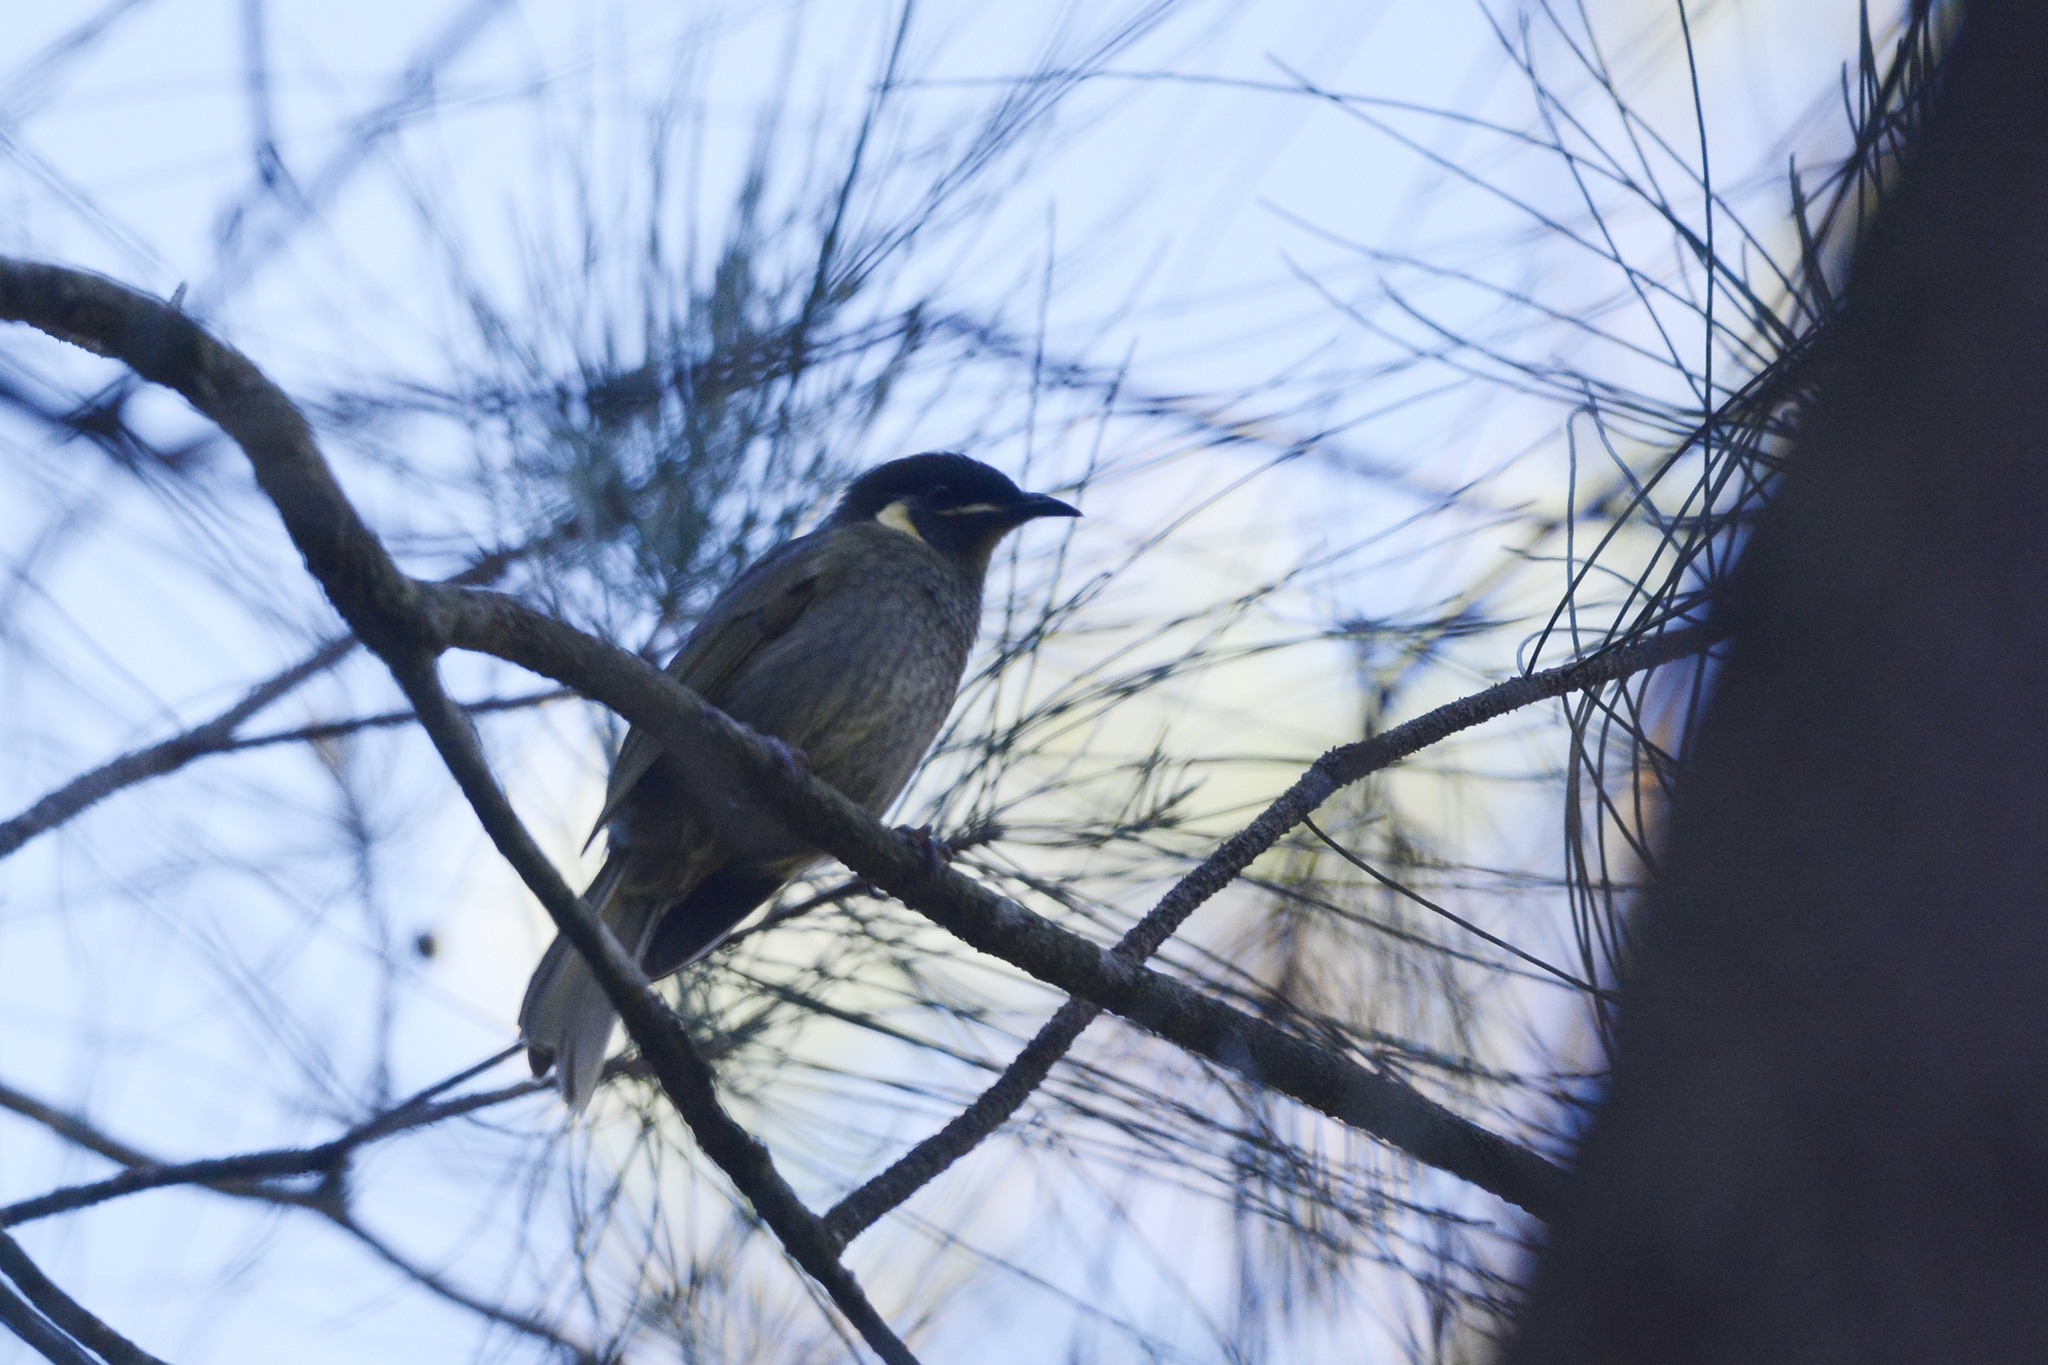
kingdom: Animalia
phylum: Chordata
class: Aves
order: Passeriformes
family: Meliphagidae
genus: Meliphaga
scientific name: Meliphaga lewinii
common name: Lewin's honeyeater
